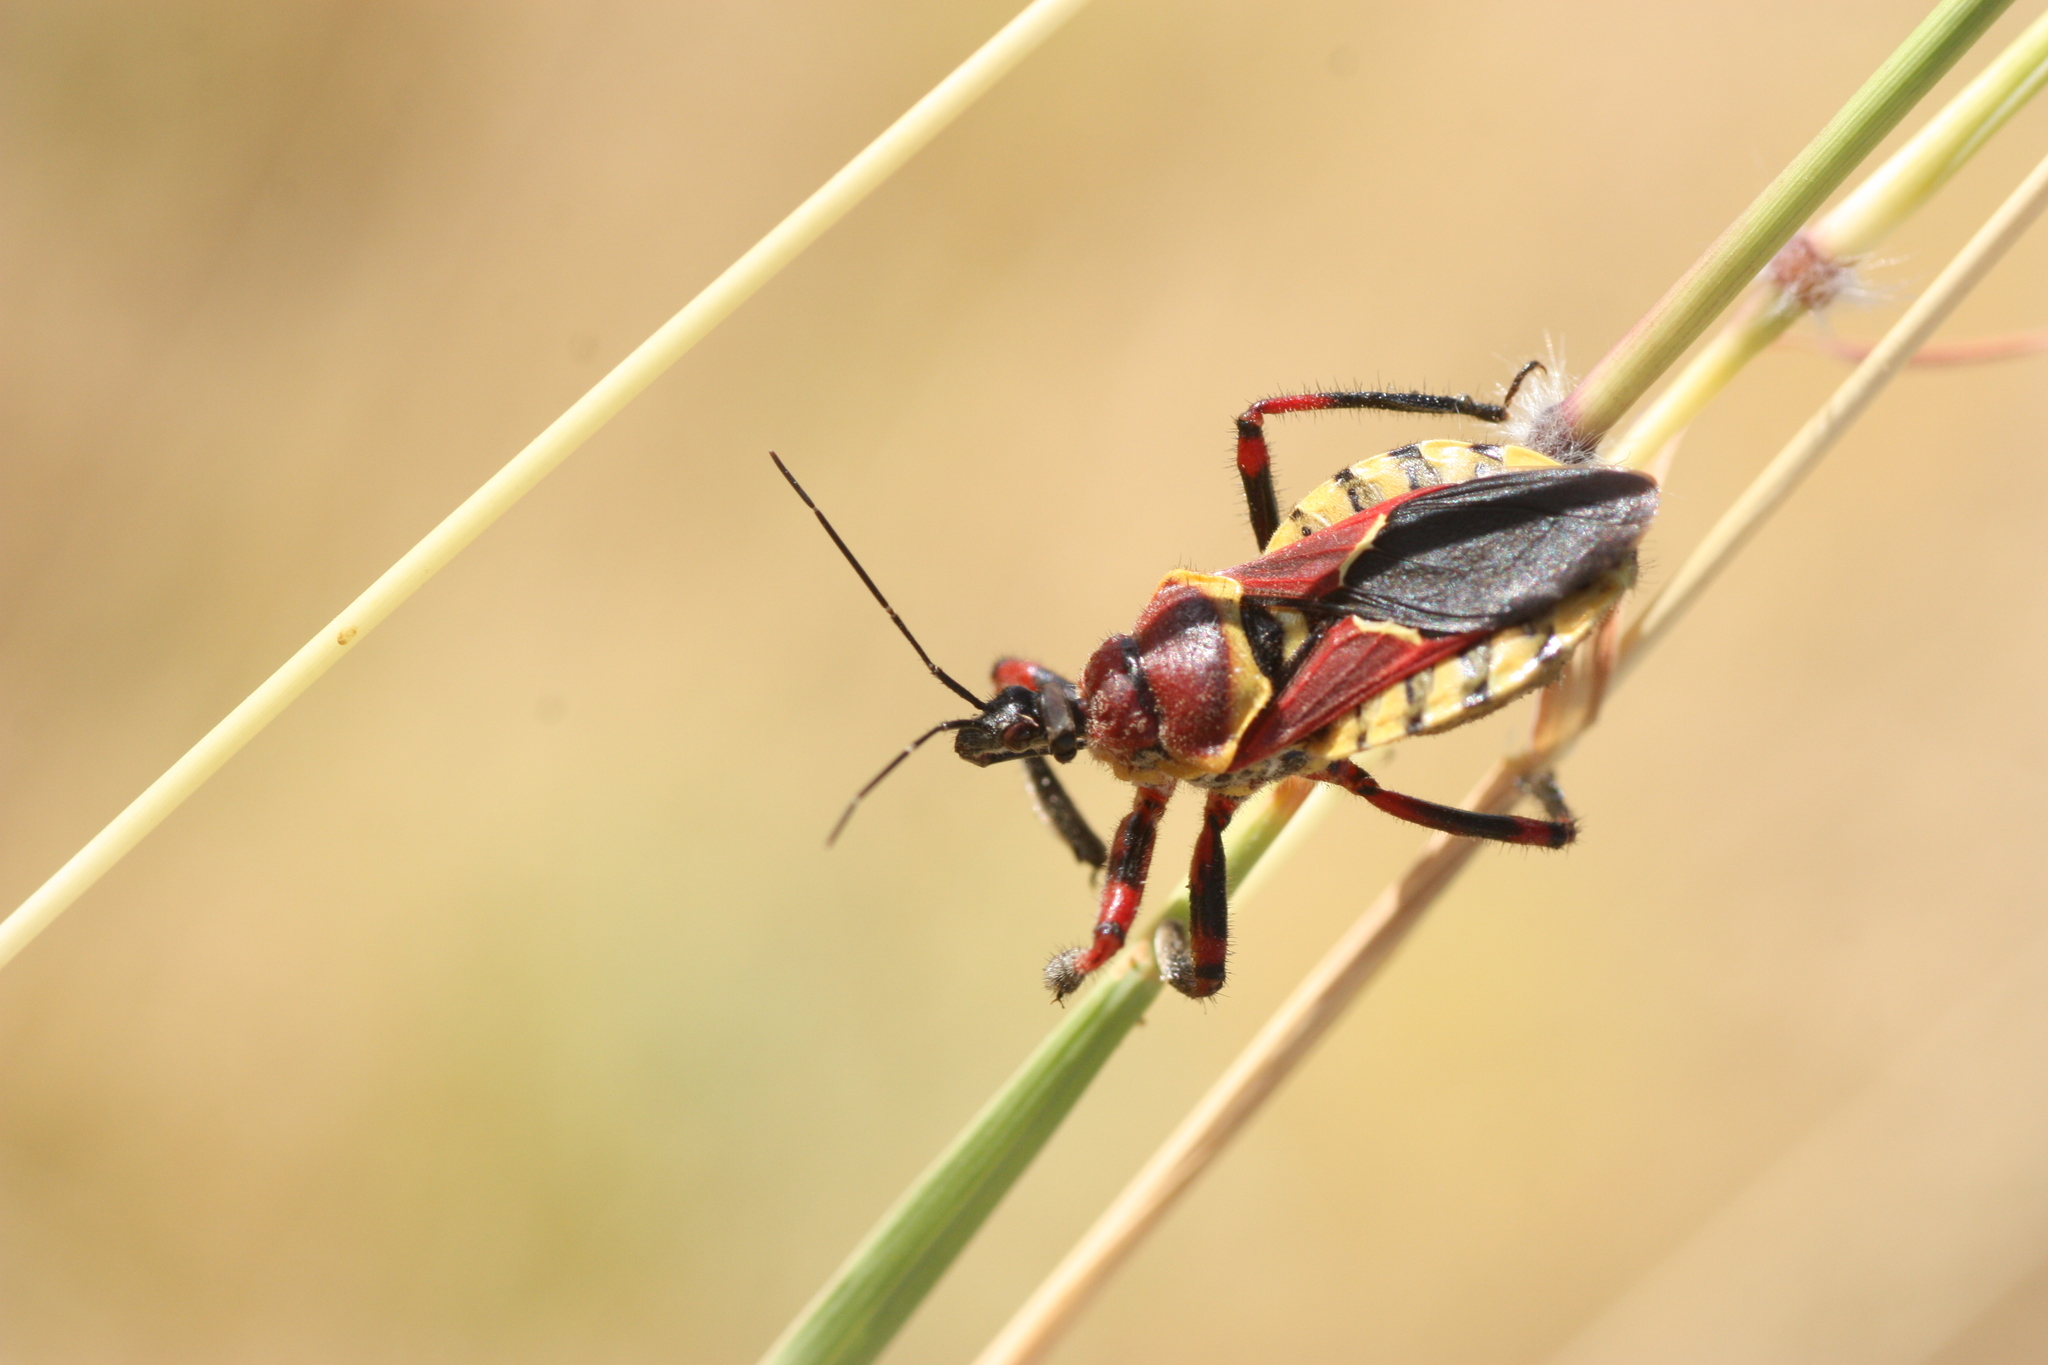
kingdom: Animalia
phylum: Arthropoda
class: Insecta
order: Hemiptera
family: Reduviidae
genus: Apiomerus
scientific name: Apiomerus flaviventris
